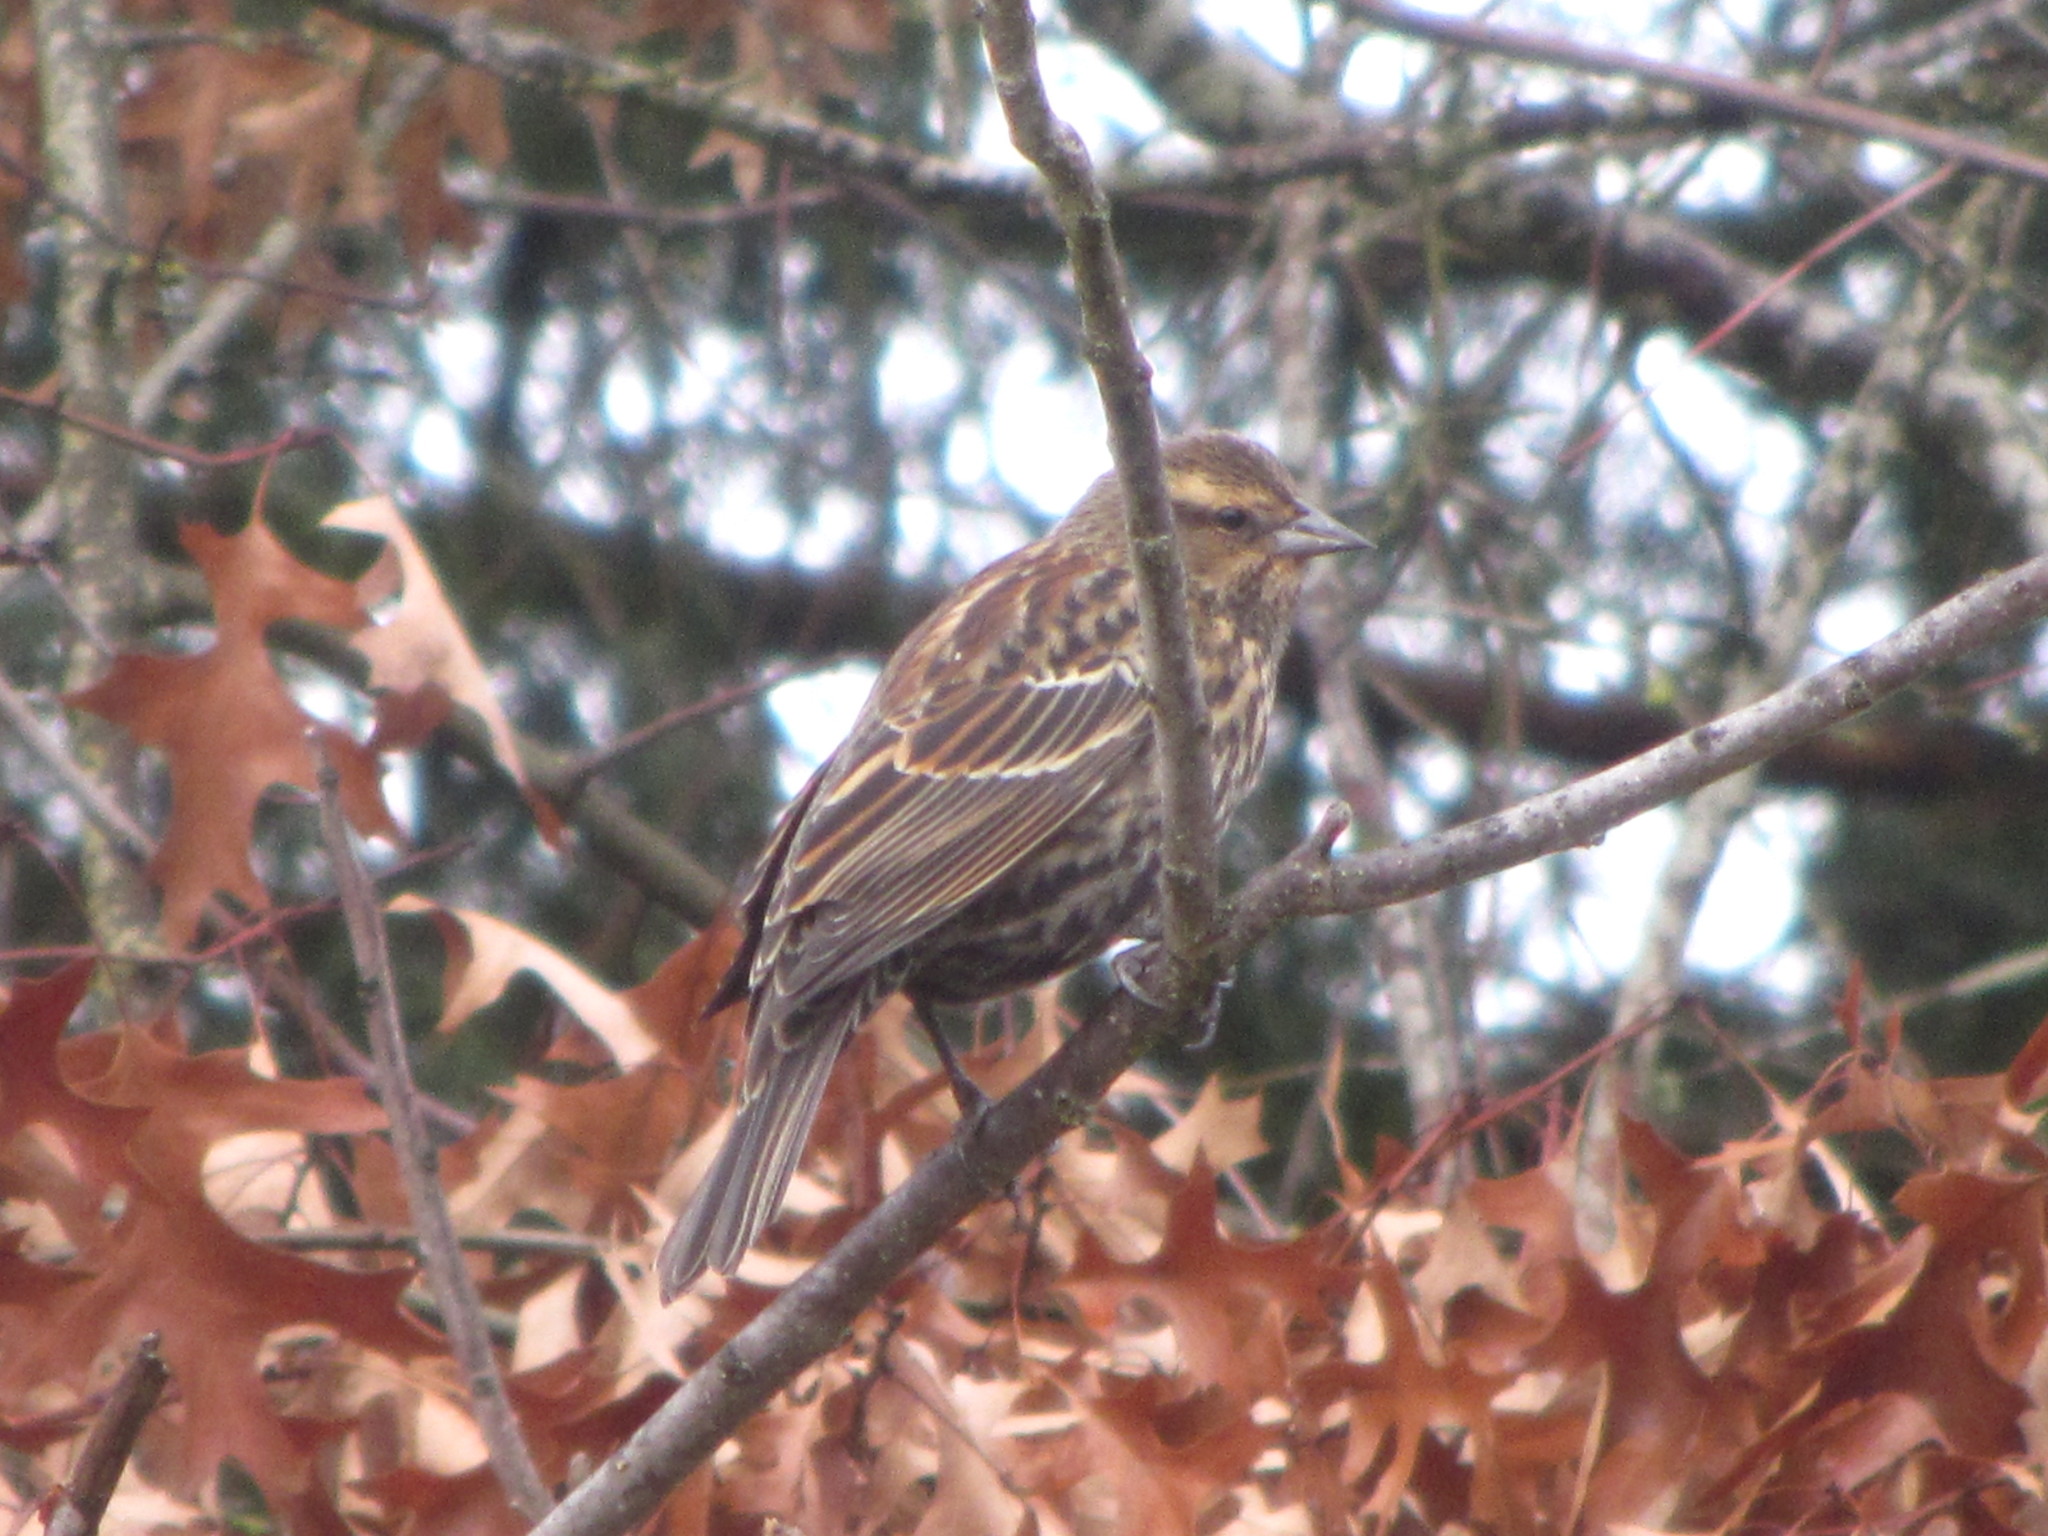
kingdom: Animalia
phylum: Chordata
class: Aves
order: Passeriformes
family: Icteridae
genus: Agelaius
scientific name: Agelaius phoeniceus
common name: Red-winged blackbird
